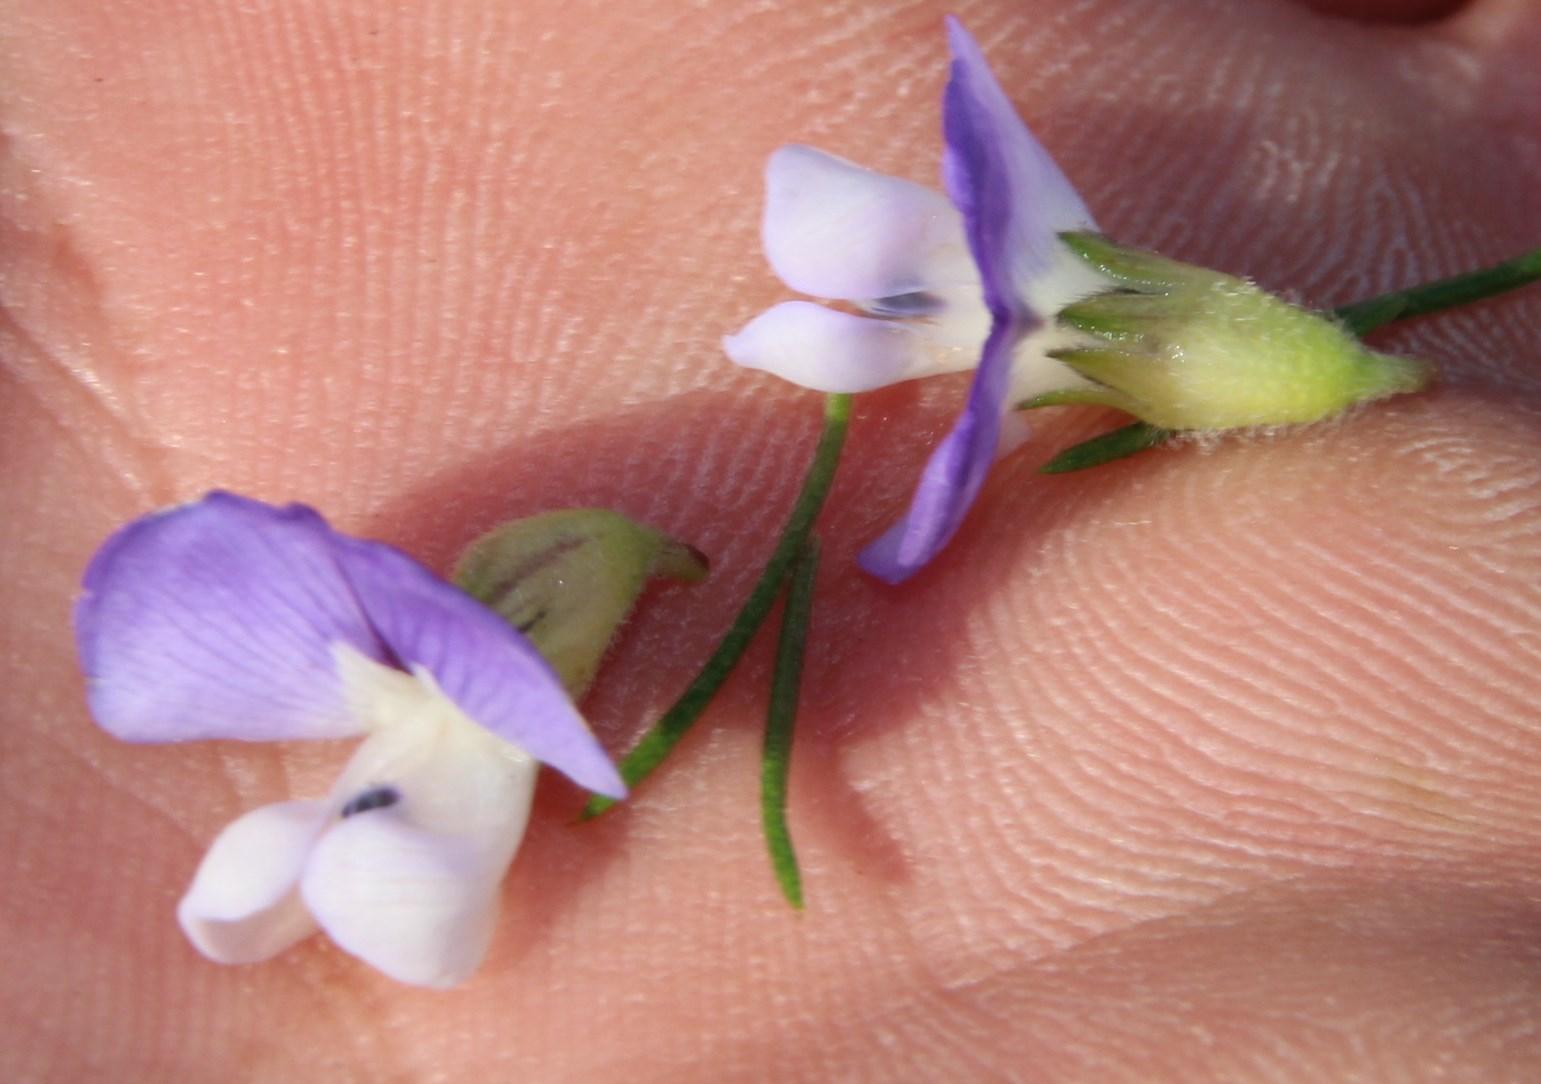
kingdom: Plantae
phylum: Tracheophyta
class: Magnoliopsida
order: Fabales
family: Fabaceae
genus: Psoralea
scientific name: Psoralea pinnata
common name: African scurfpea
